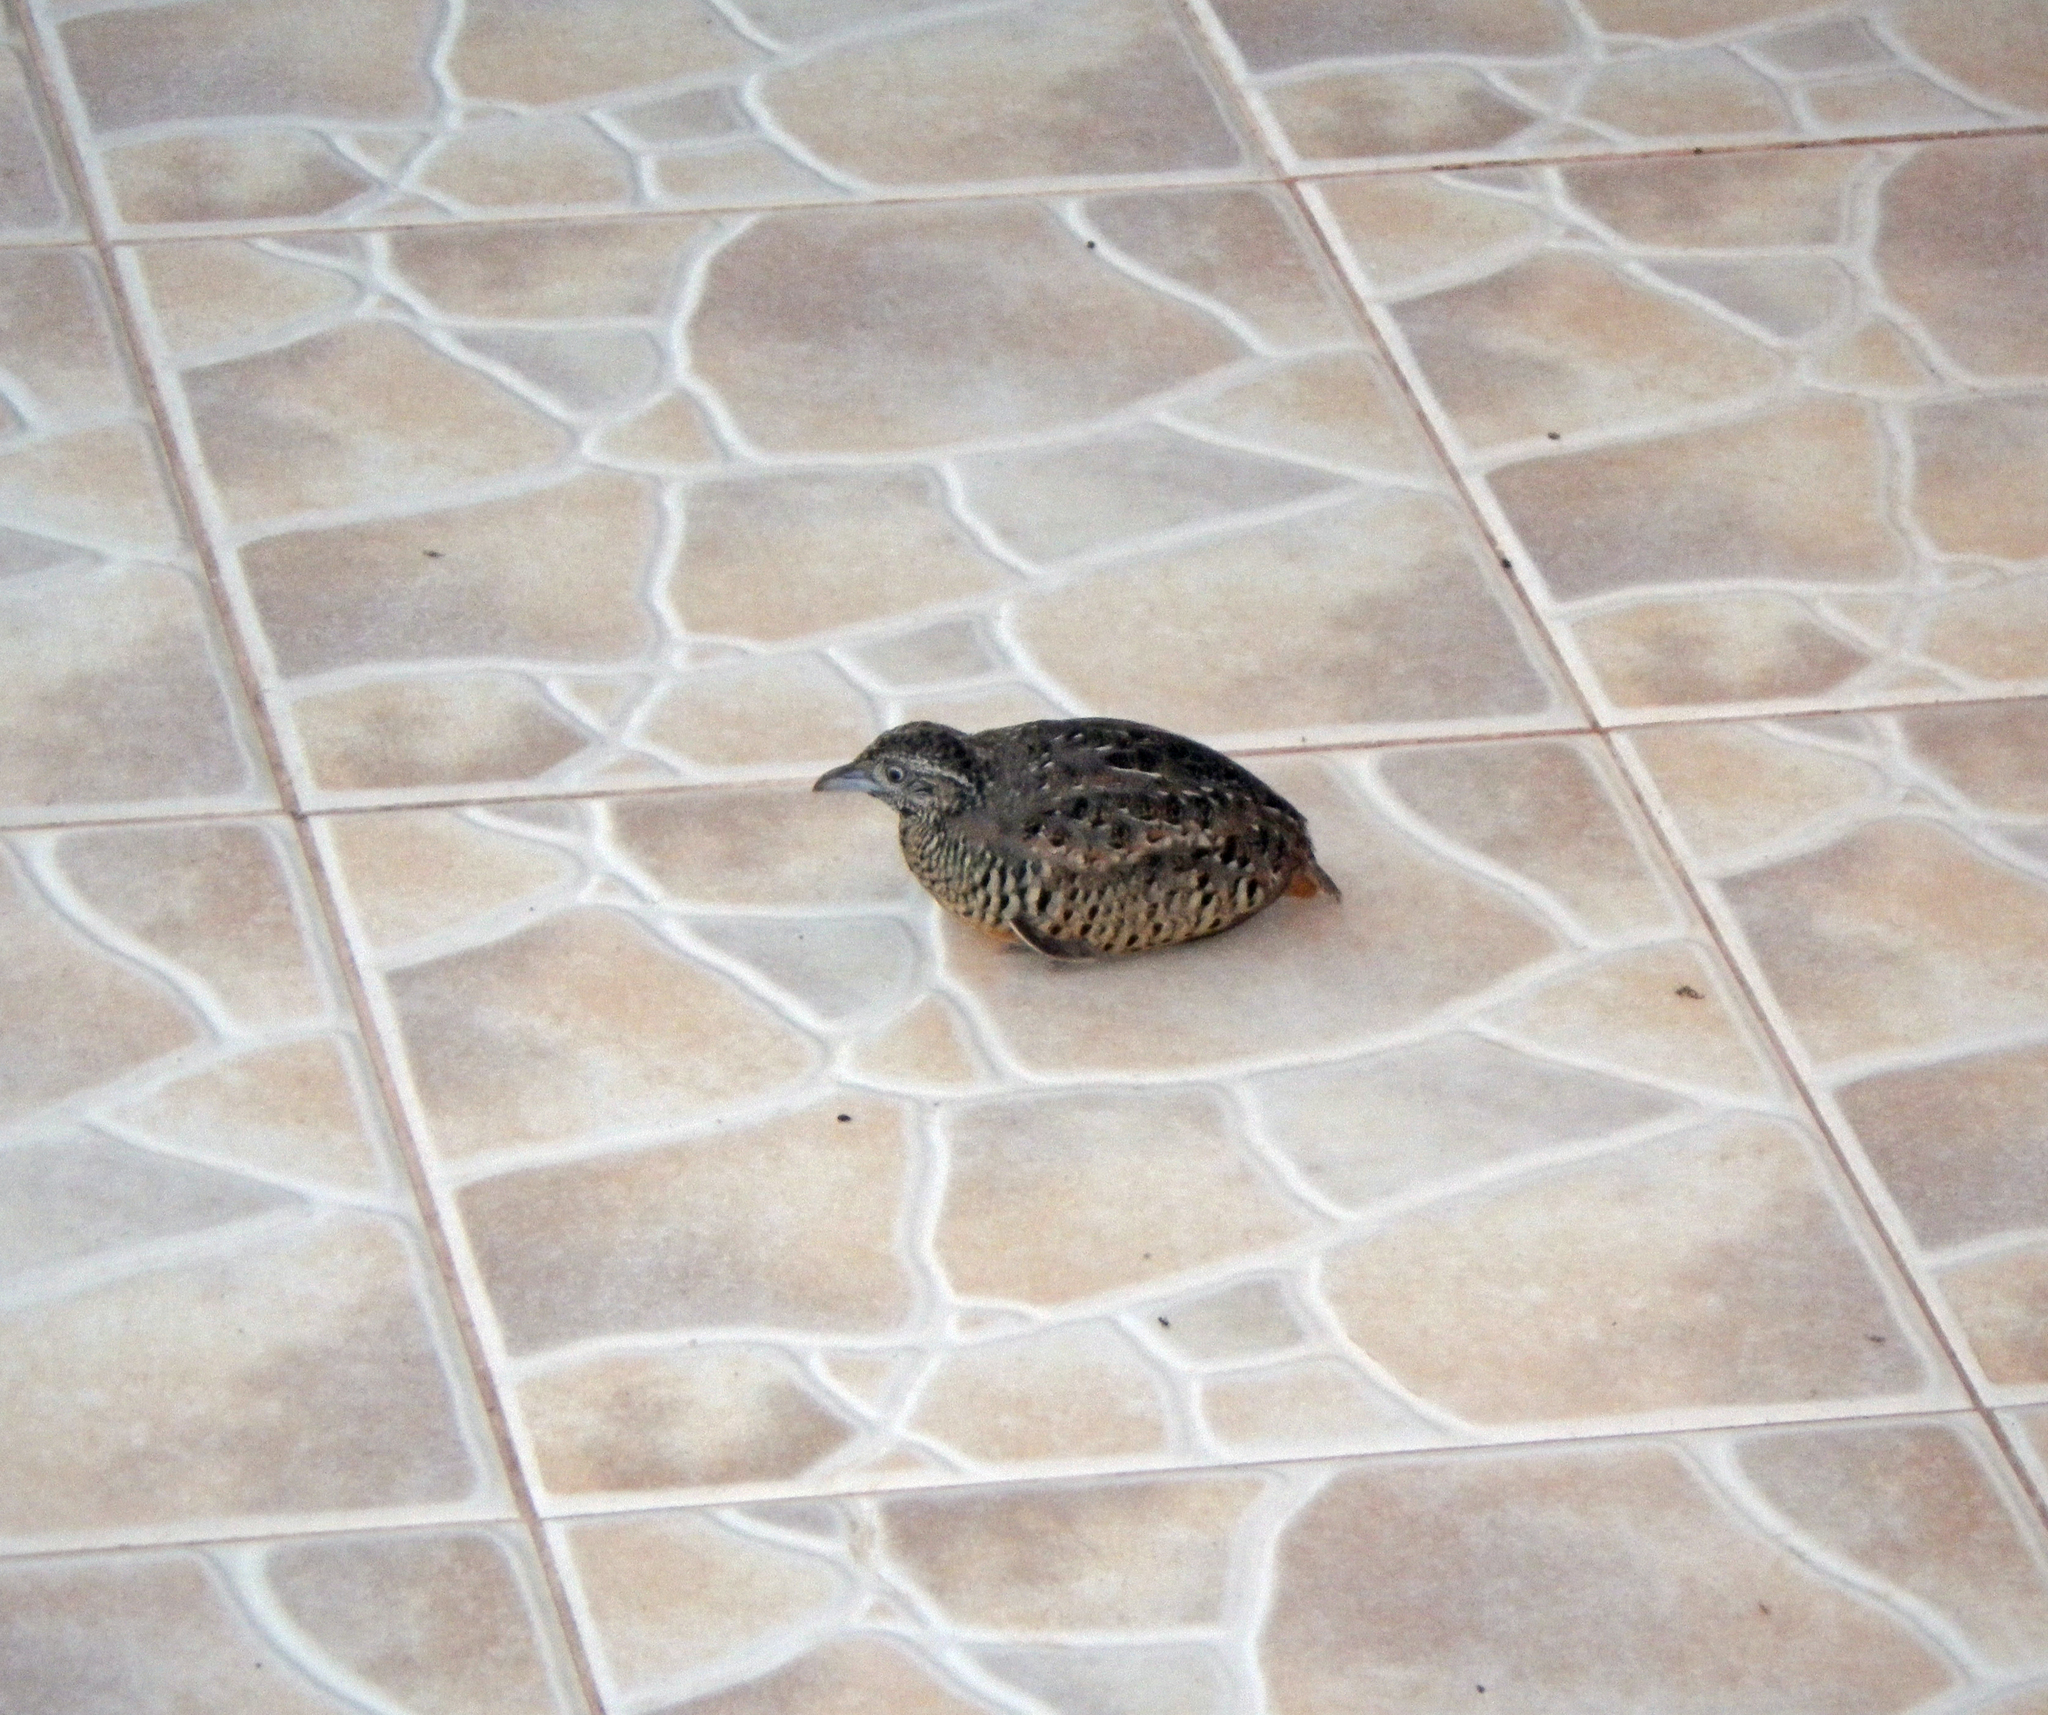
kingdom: Animalia
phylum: Chordata
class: Aves
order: Charadriiformes
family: Turnicidae
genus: Turnix
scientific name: Turnix suscitator
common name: Barred buttonquail
